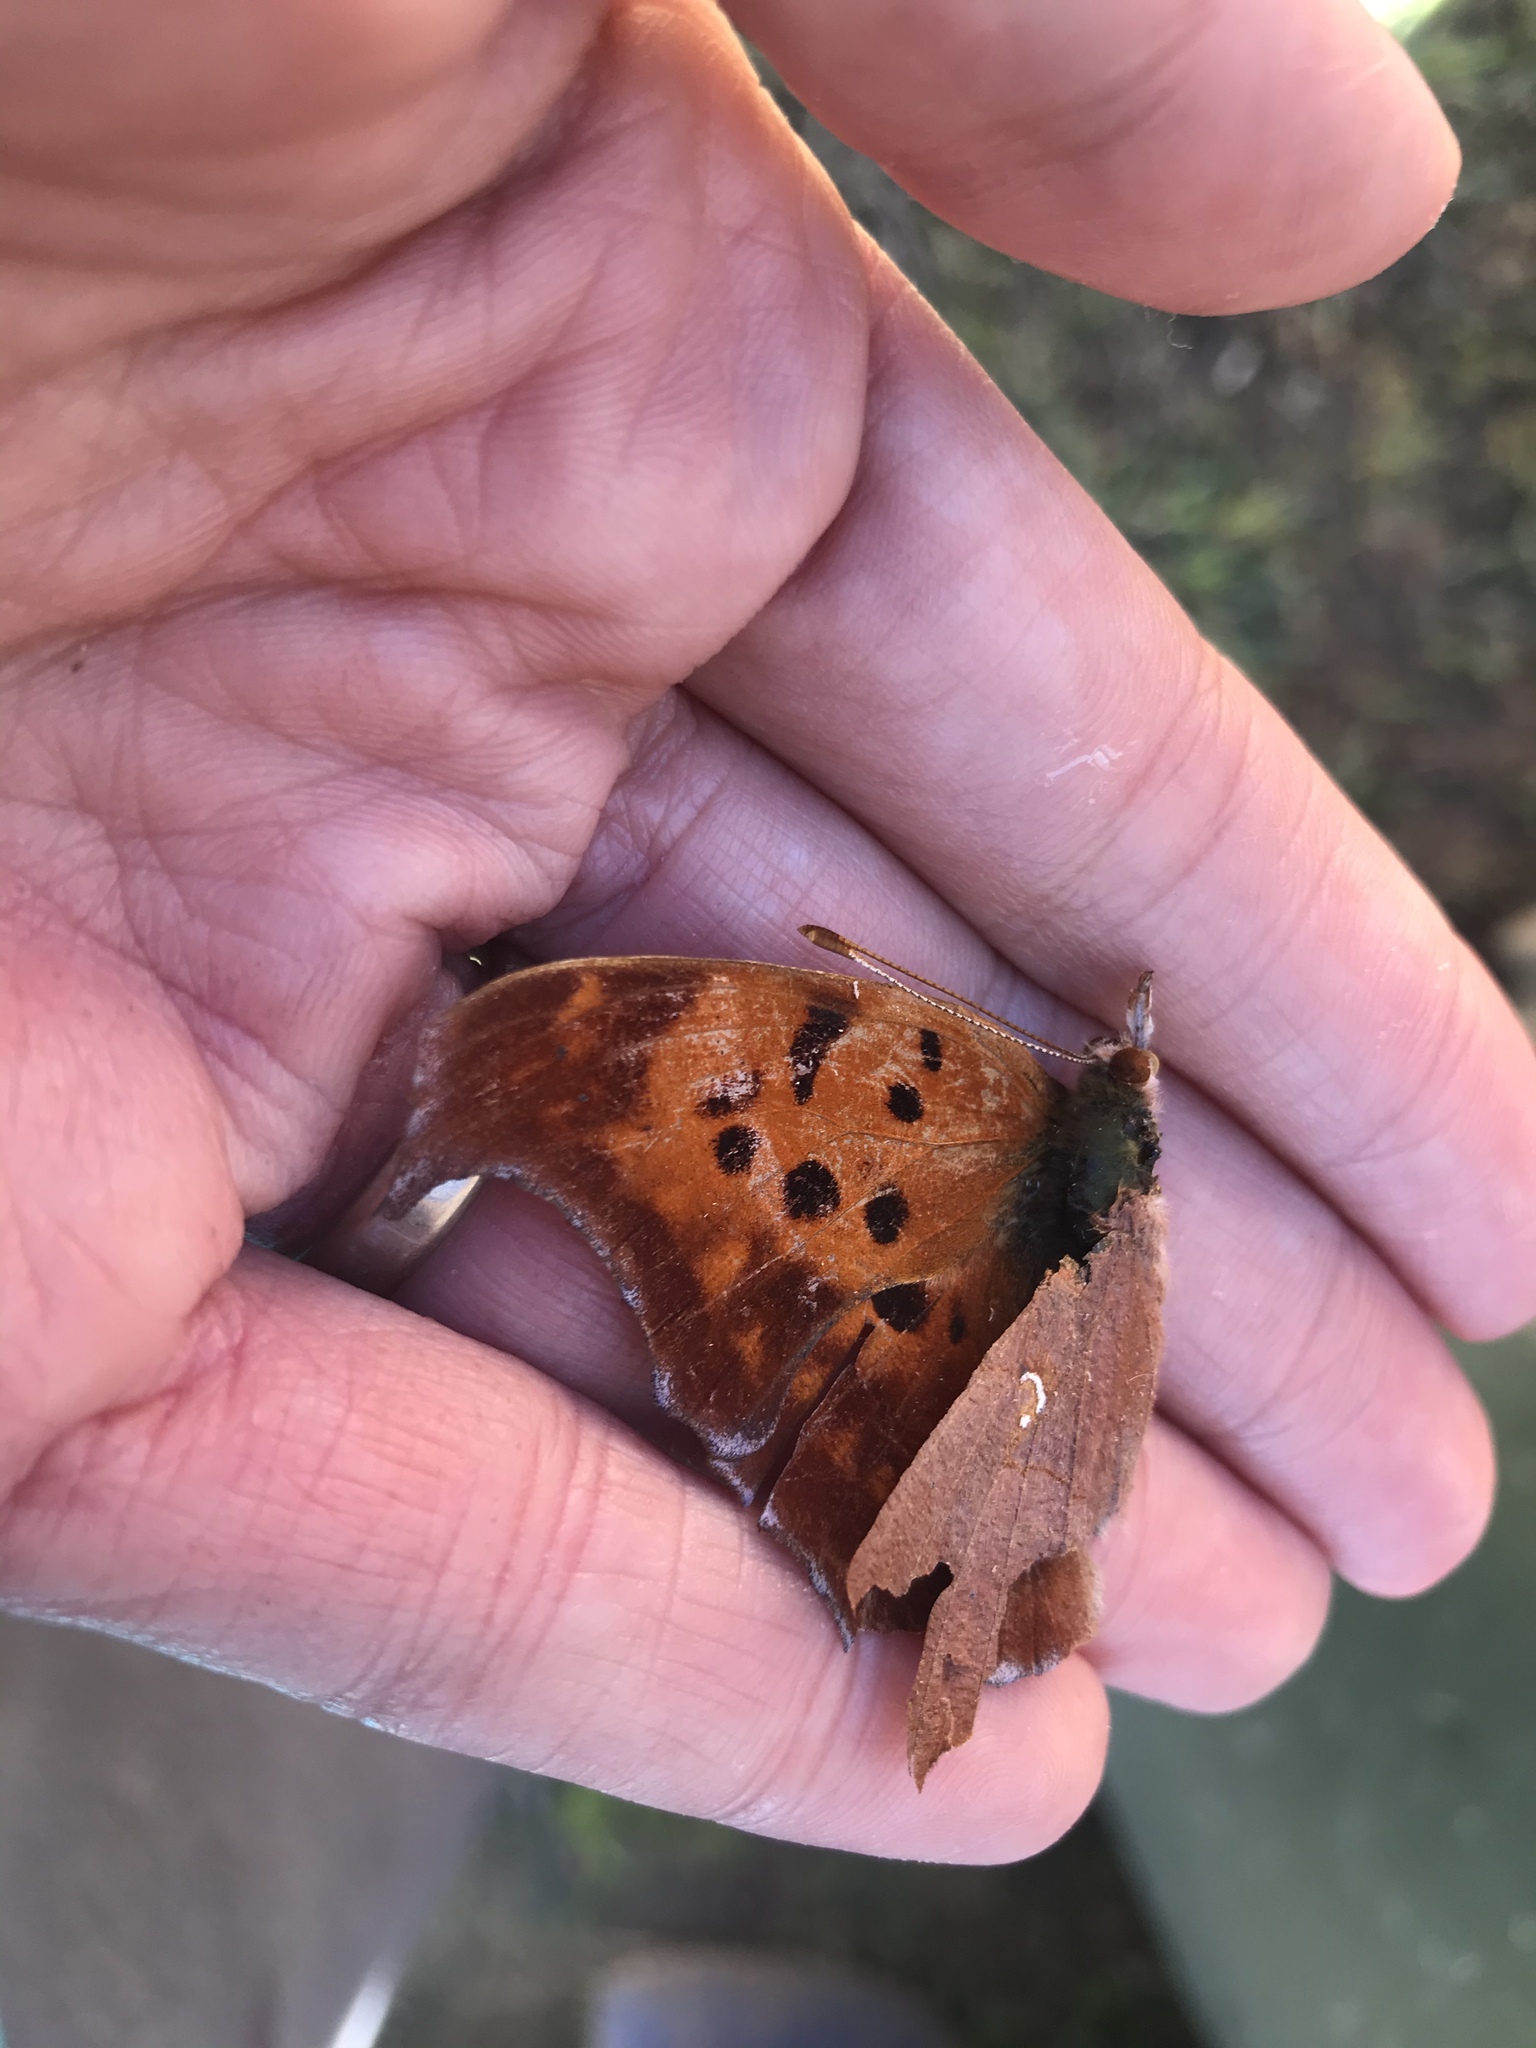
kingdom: Animalia
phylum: Arthropoda
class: Insecta
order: Lepidoptera
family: Nymphalidae
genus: Polygonia
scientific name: Polygonia interrogationis
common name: Question mark
